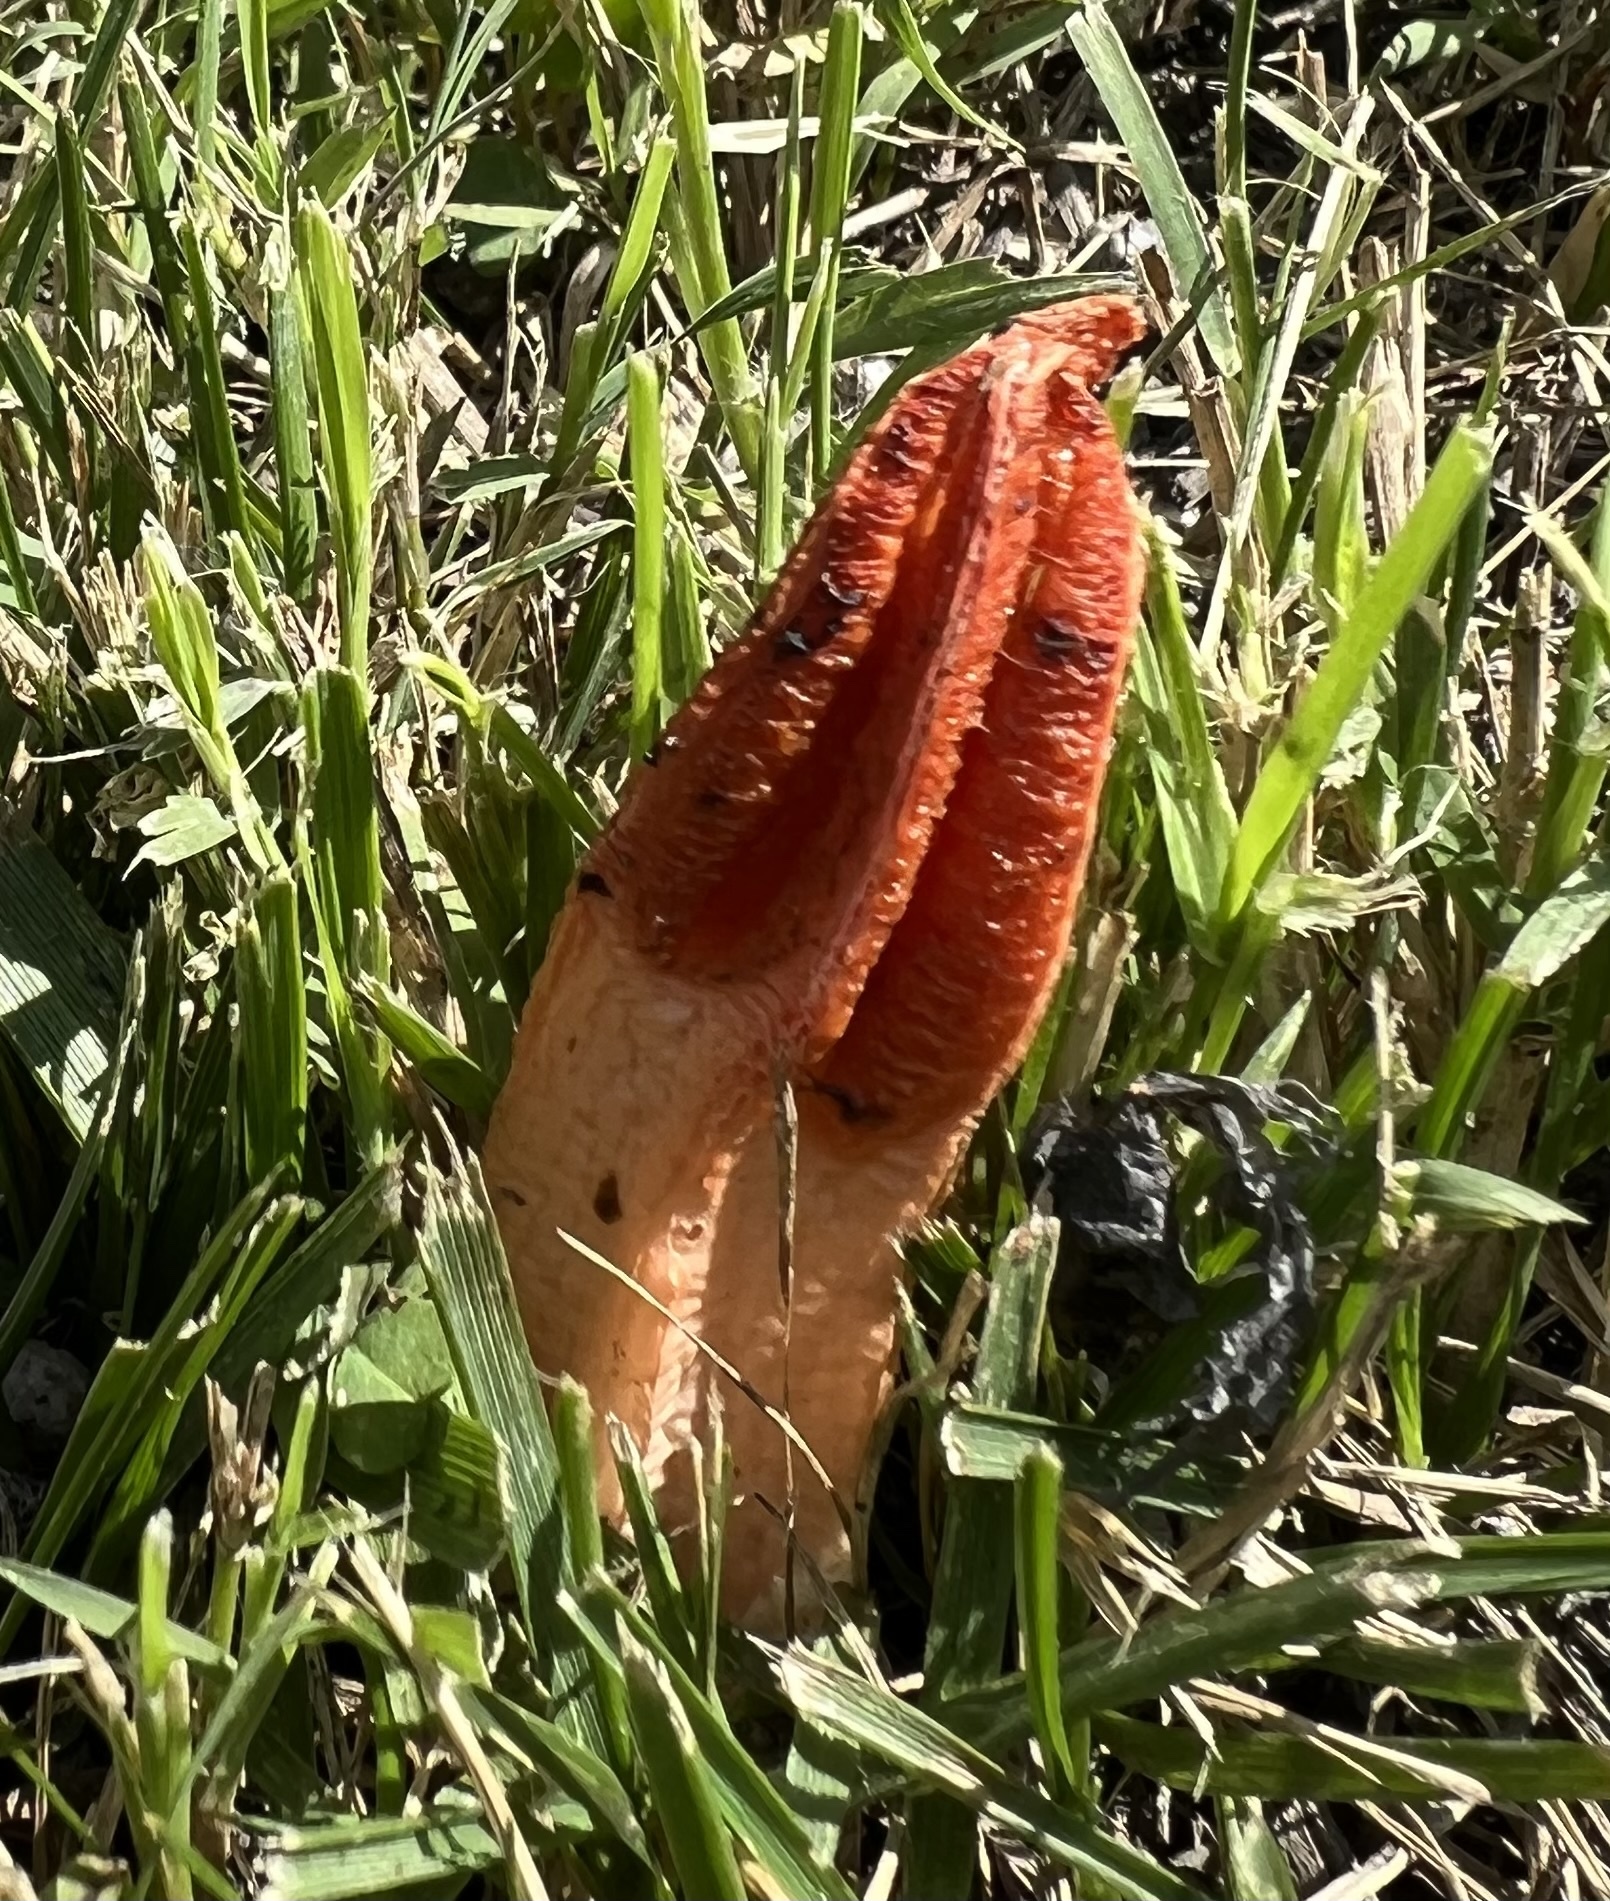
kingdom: Fungi
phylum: Basidiomycota
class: Agaricomycetes
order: Phallales
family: Phallaceae
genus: Lysurus
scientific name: Lysurus mokusin
